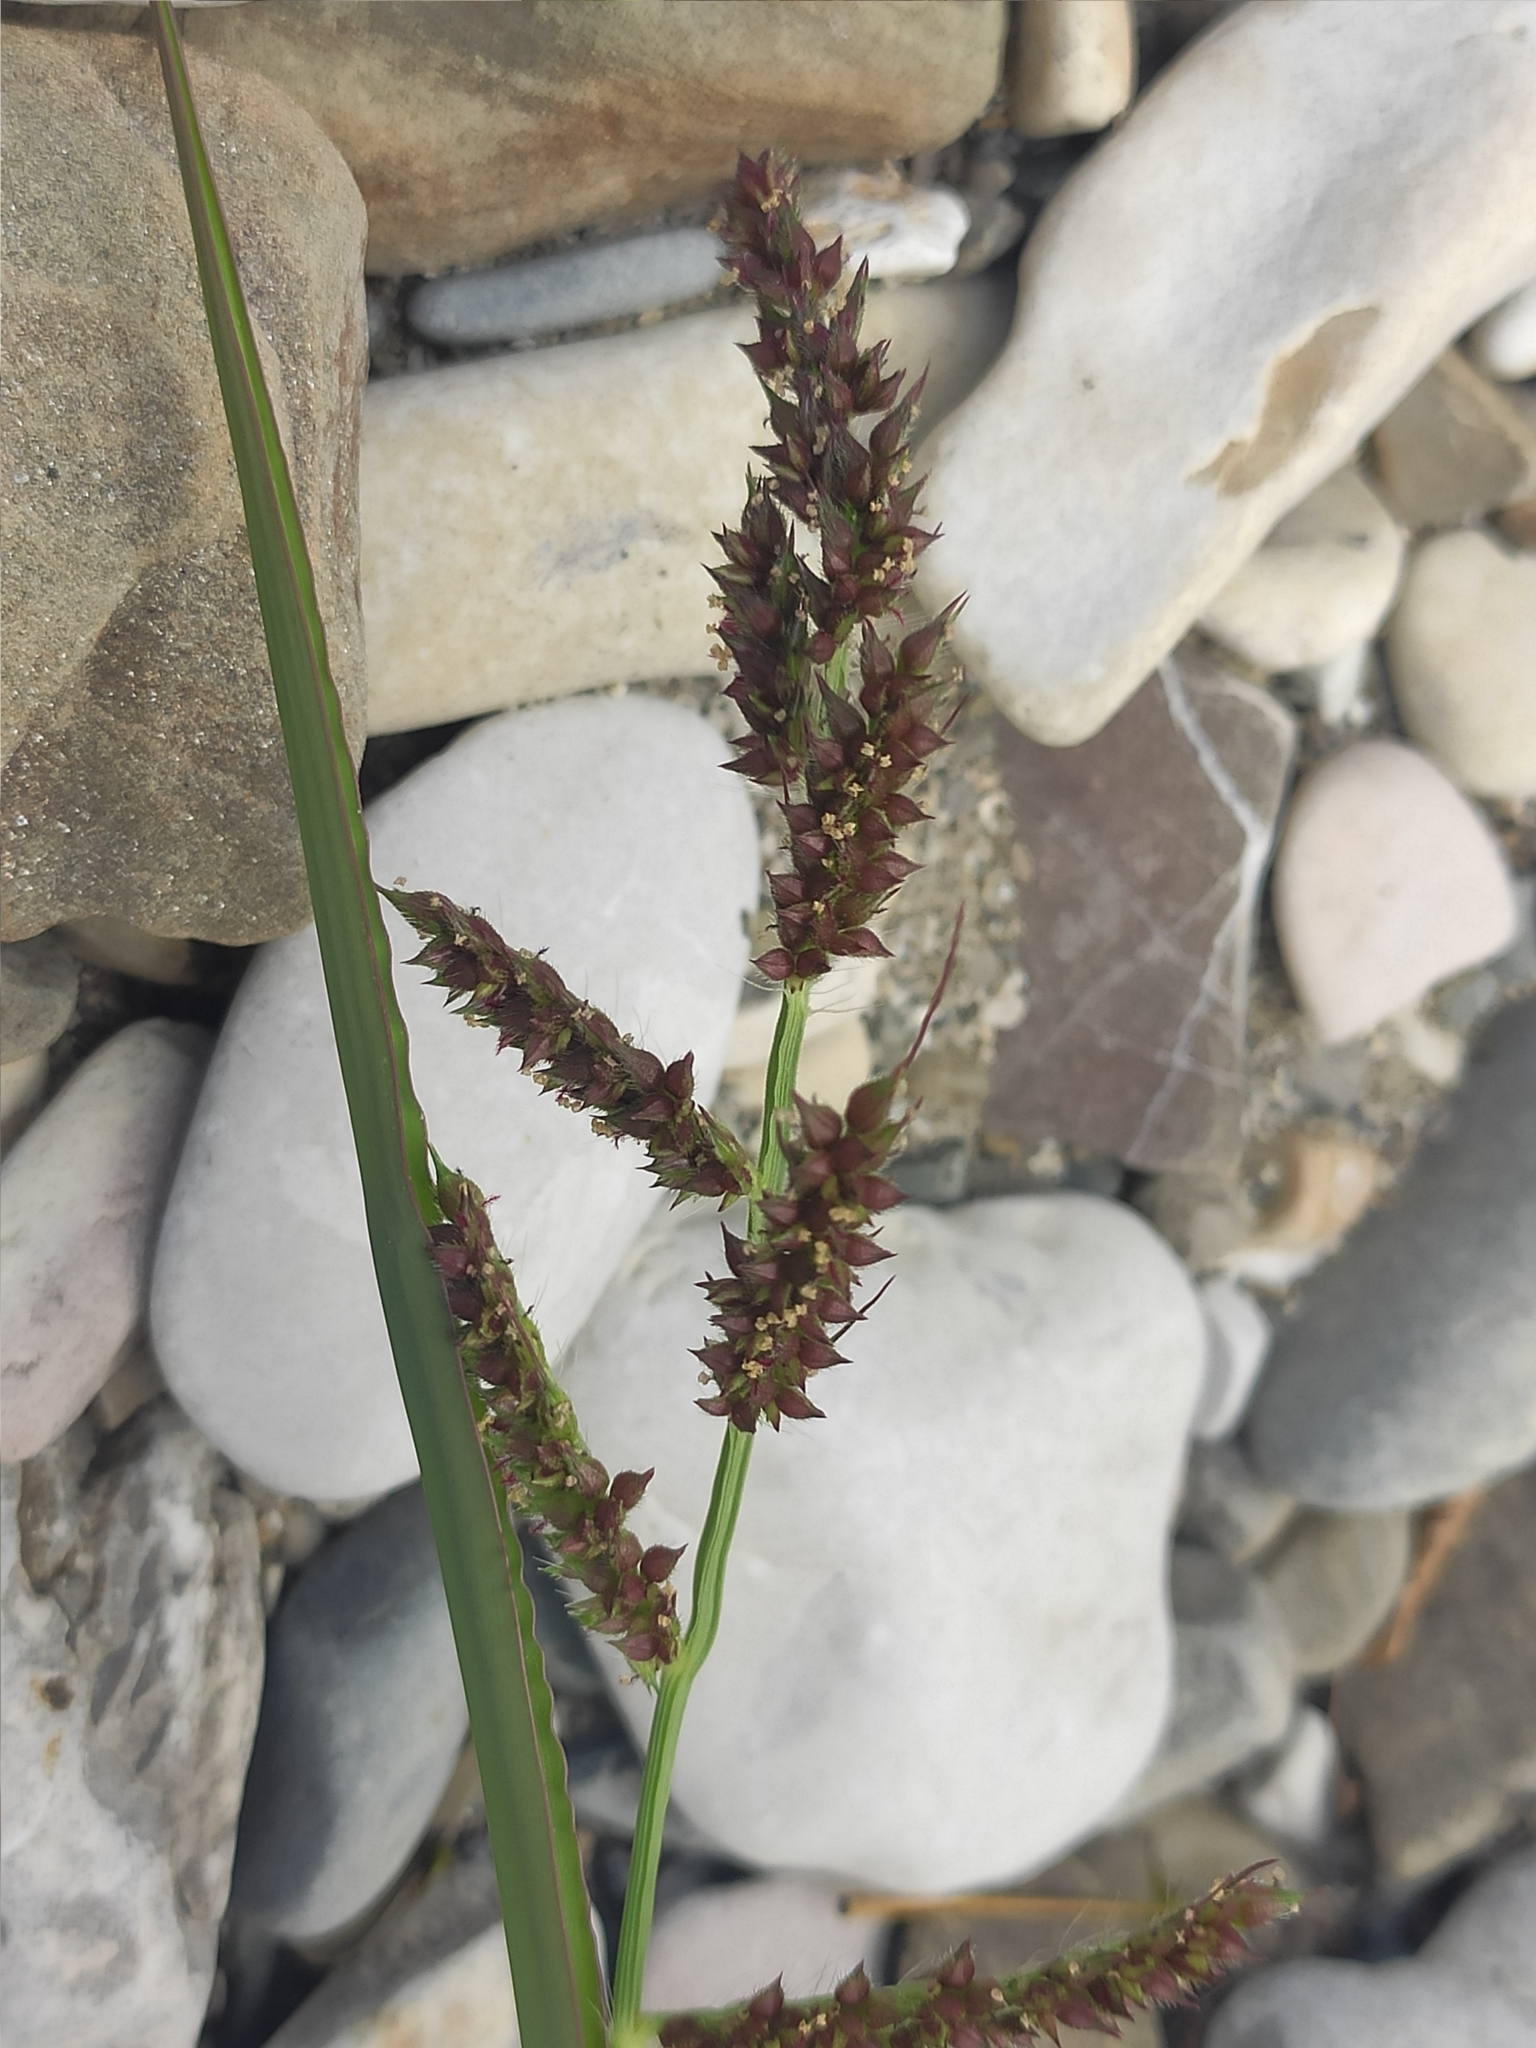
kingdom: Plantae
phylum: Tracheophyta
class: Liliopsida
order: Poales
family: Poaceae
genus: Echinochloa
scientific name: Echinochloa crus-galli
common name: Cockspur
